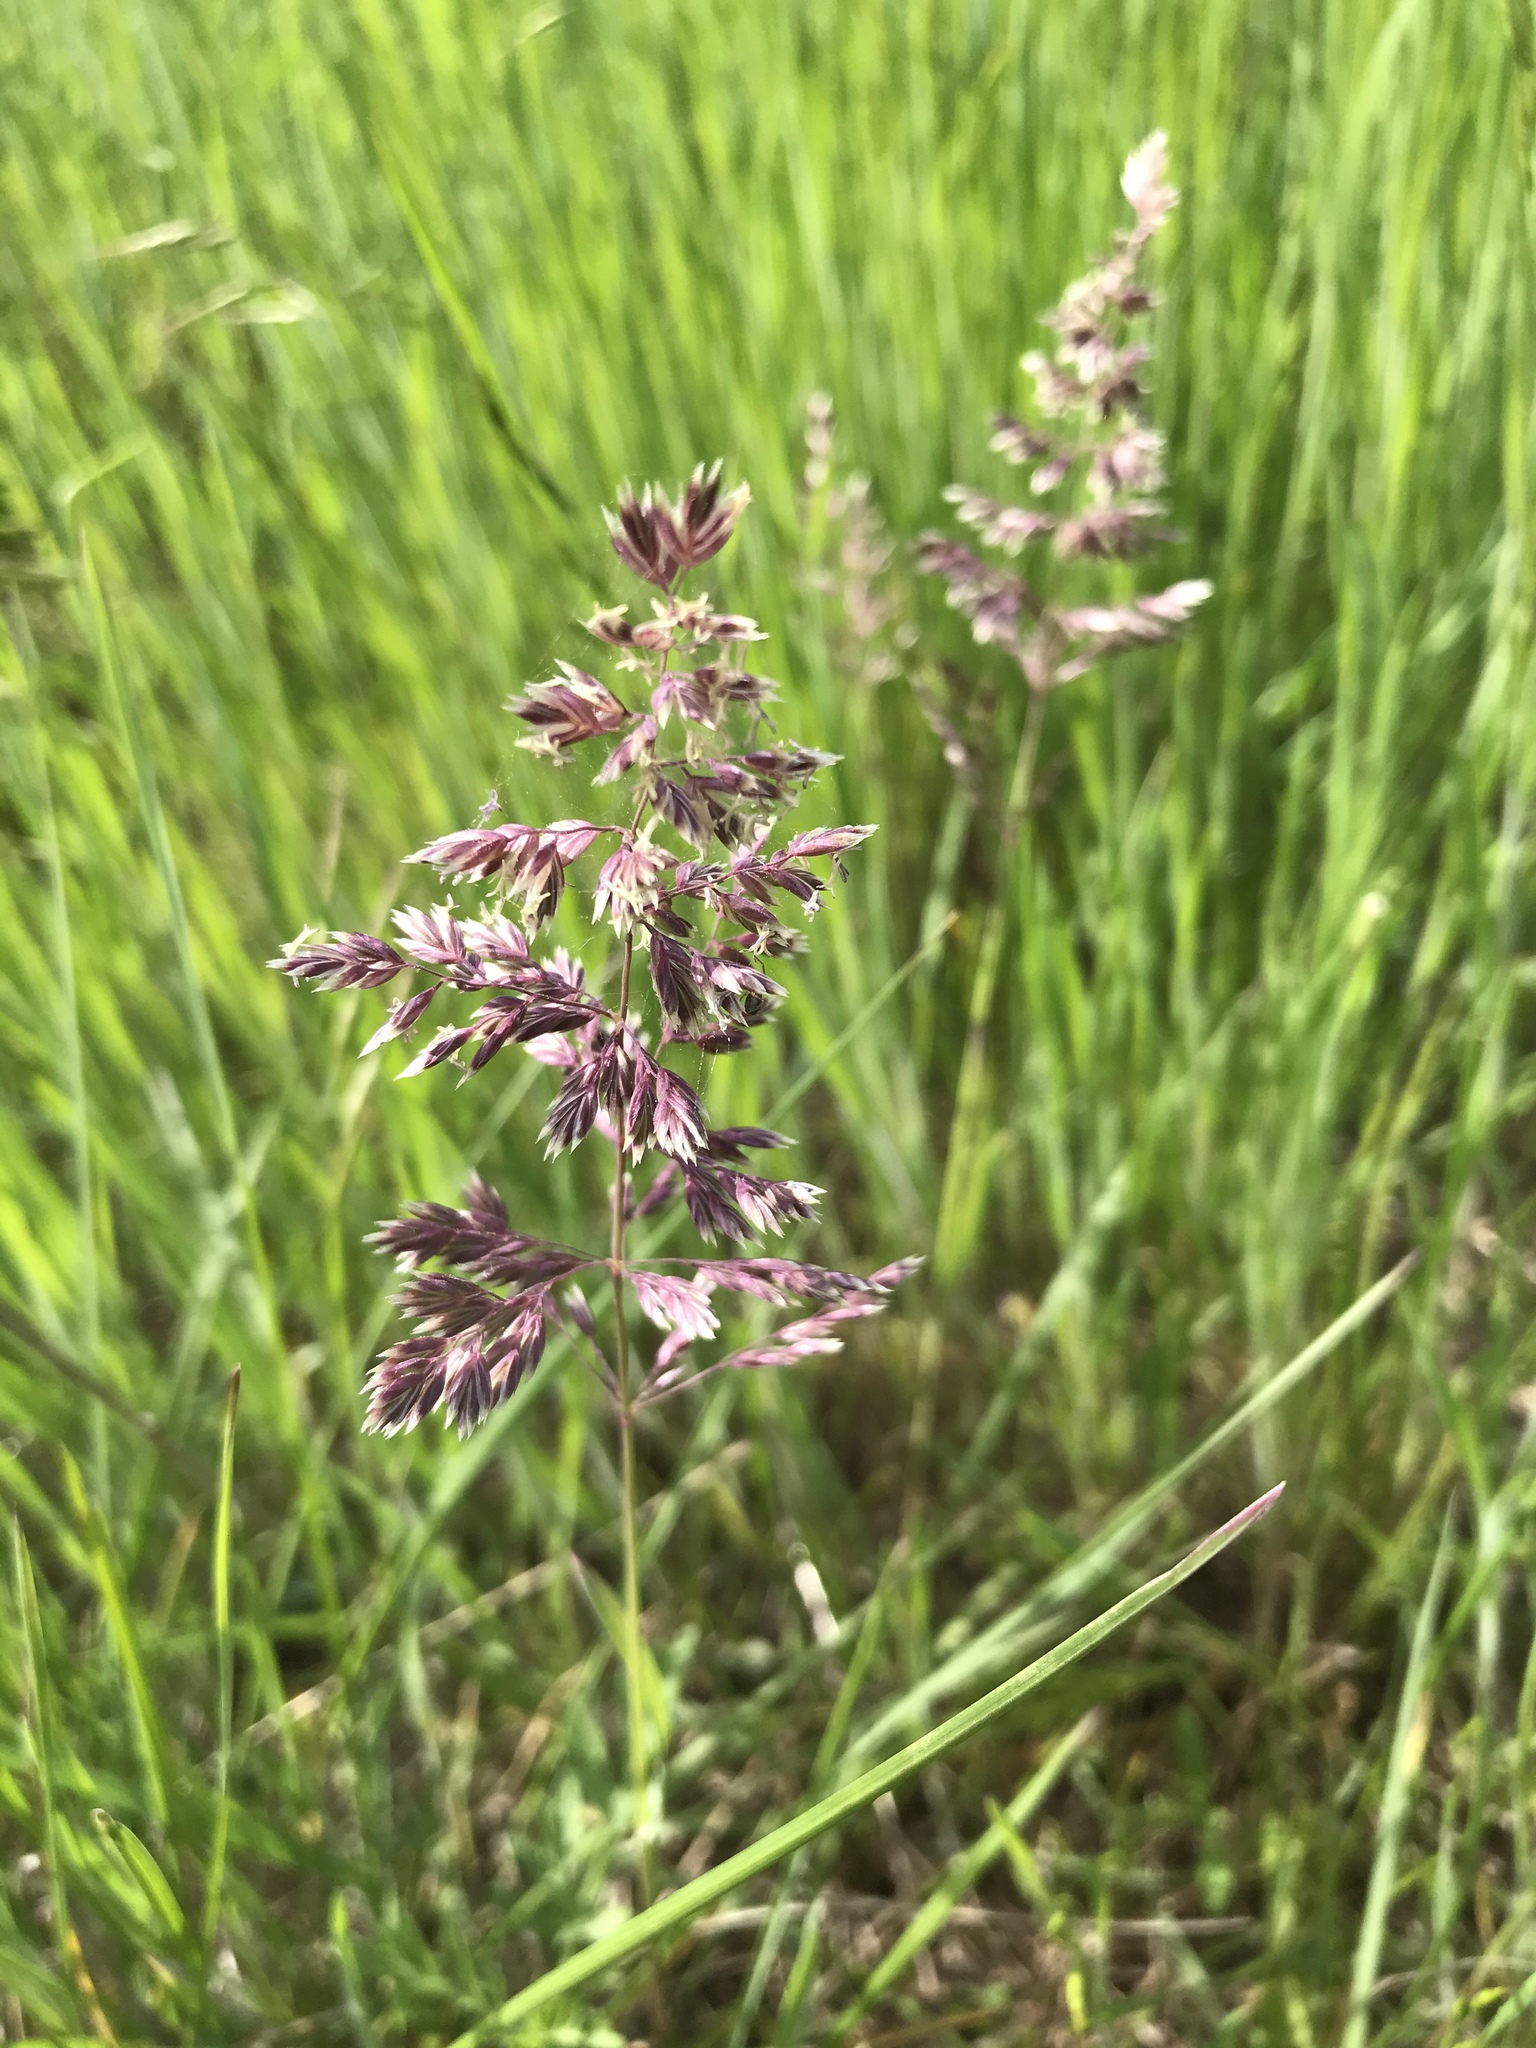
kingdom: Plantae
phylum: Tracheophyta
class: Liliopsida
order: Poales
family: Poaceae
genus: Poa
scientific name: Poa pratensis
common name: Kentucky bluegrass
